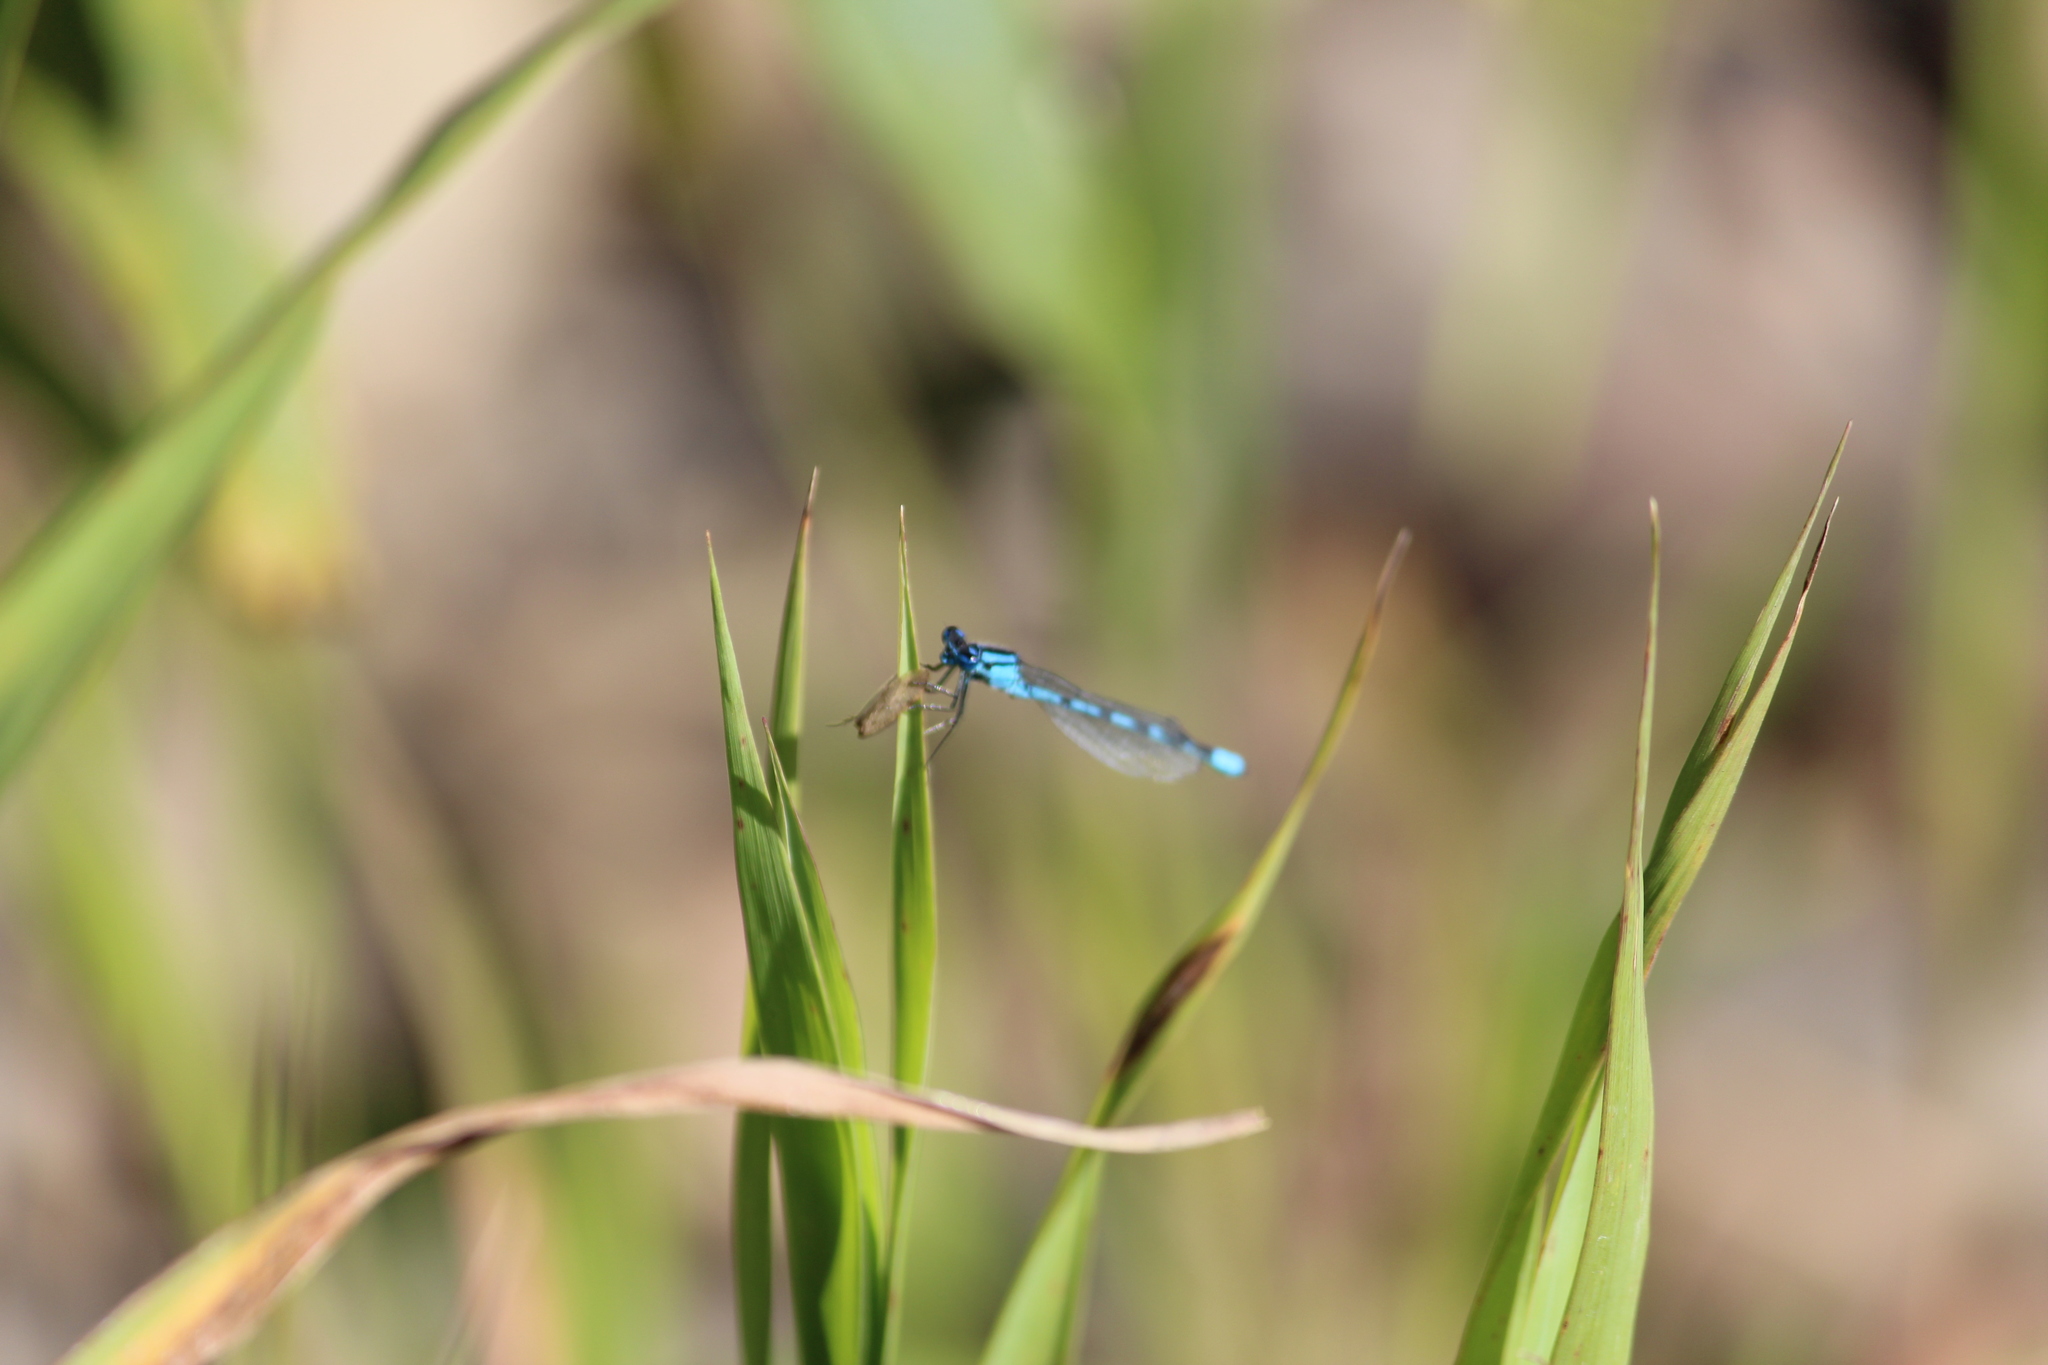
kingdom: Animalia
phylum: Arthropoda
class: Insecta
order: Odonata
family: Coenagrionidae
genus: Enallagma
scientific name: Enallagma cyathigerum
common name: Common blue damselfly
